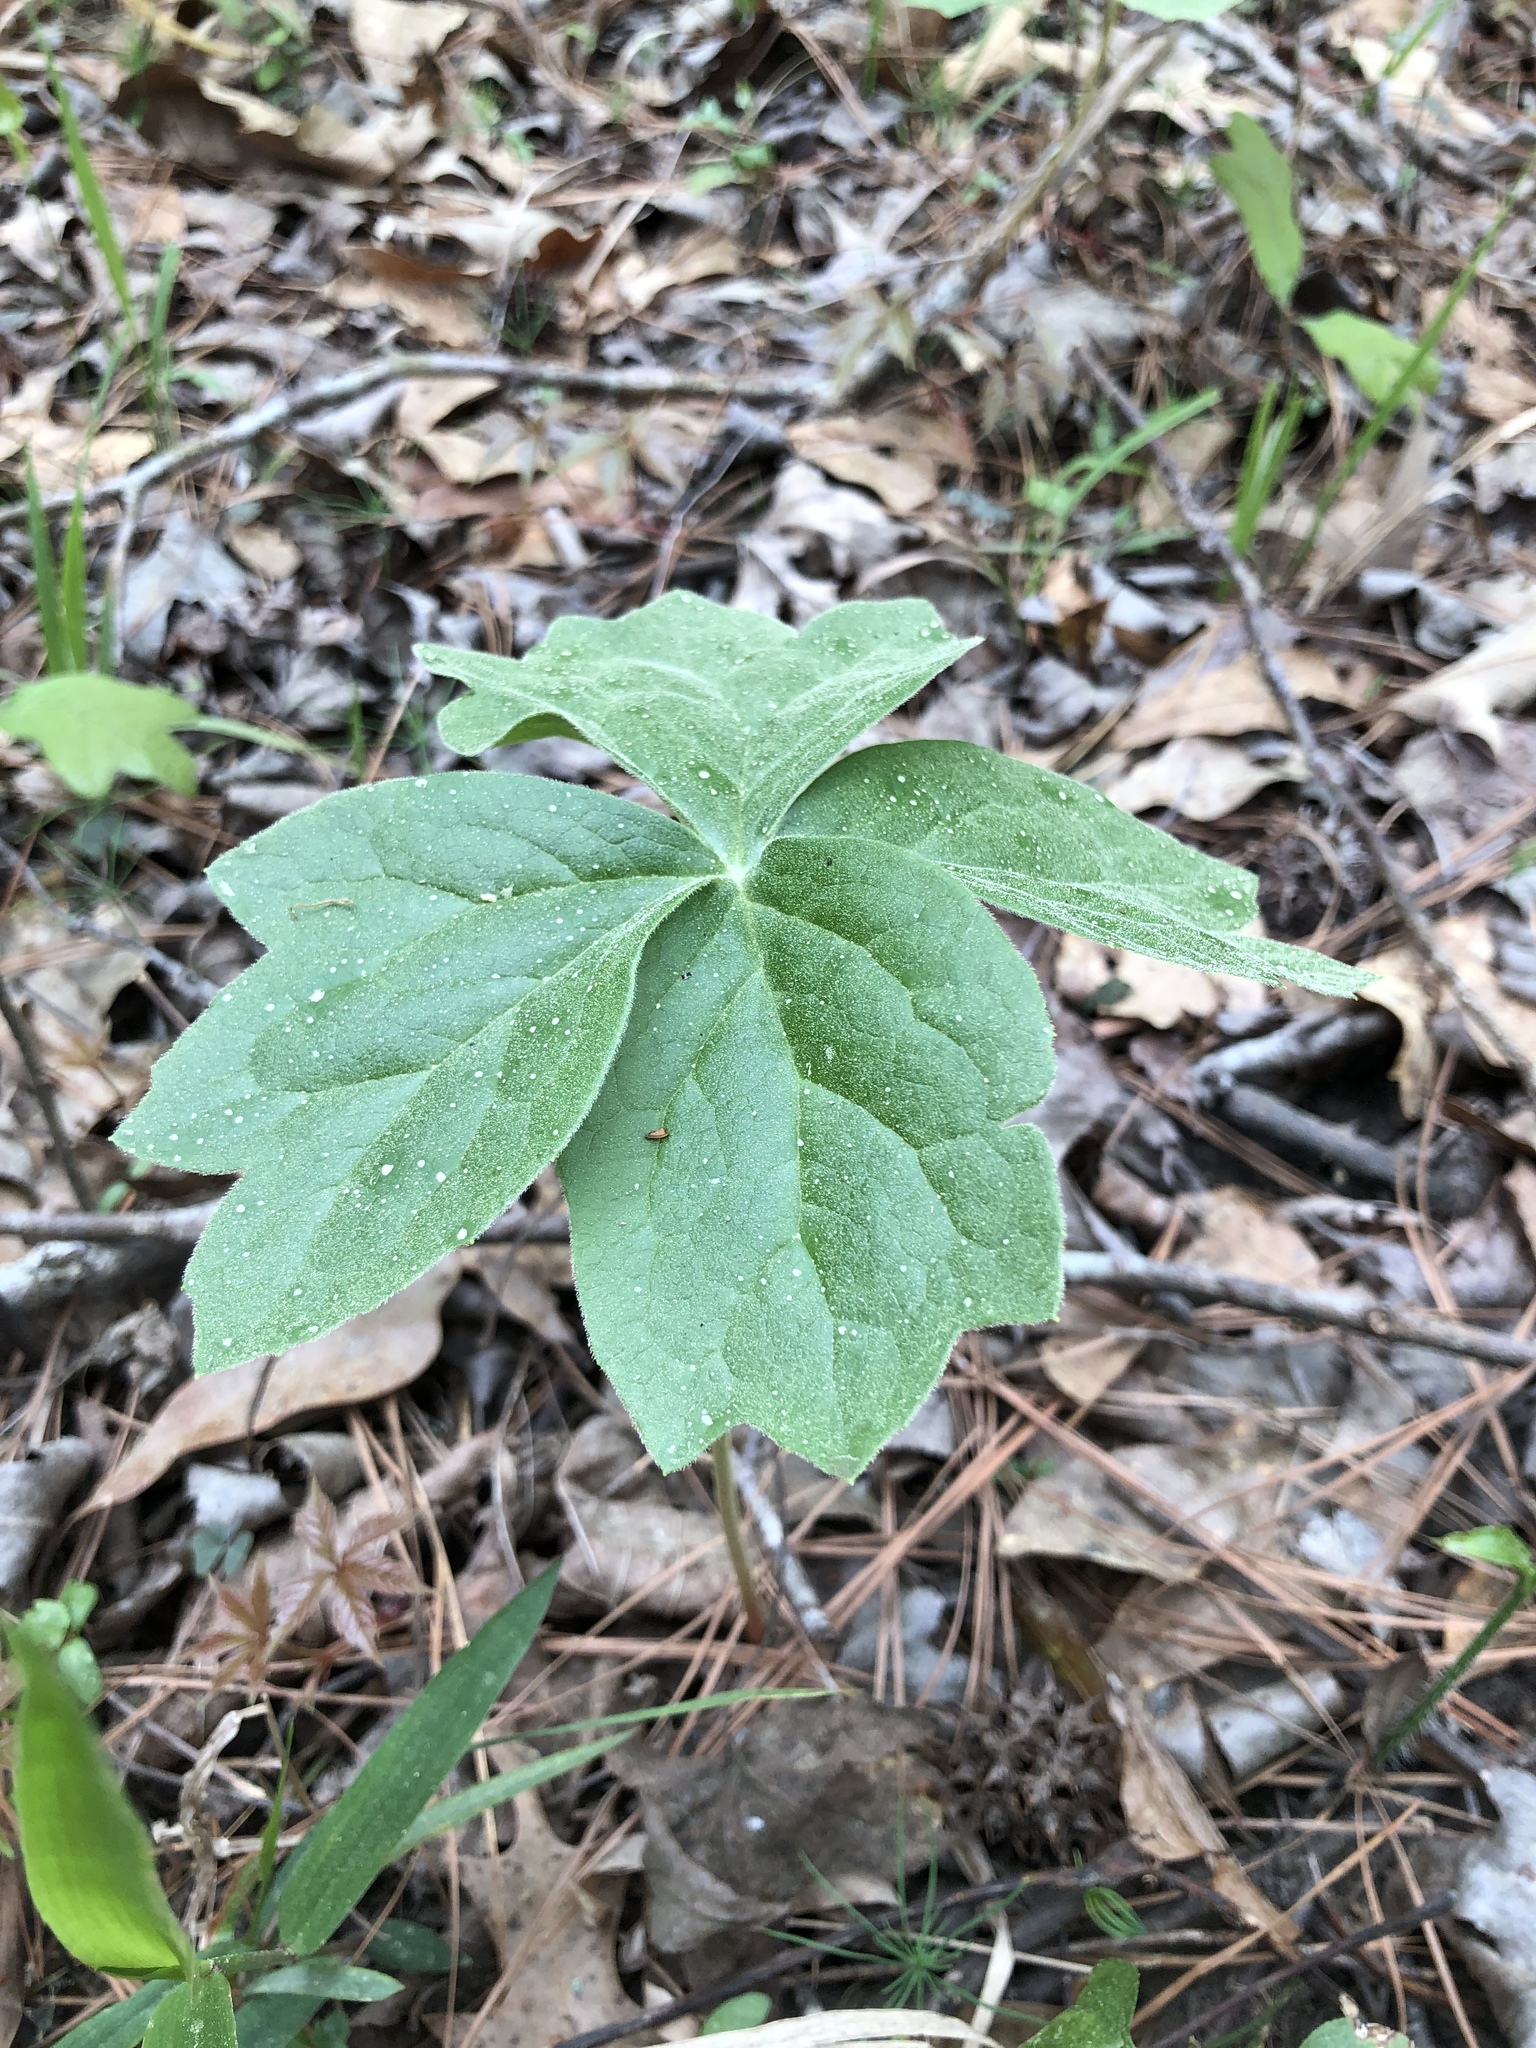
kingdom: Plantae
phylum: Tracheophyta
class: Magnoliopsida
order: Ranunculales
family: Berberidaceae
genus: Podophyllum
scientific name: Podophyllum peltatum
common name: Wild mandrake
